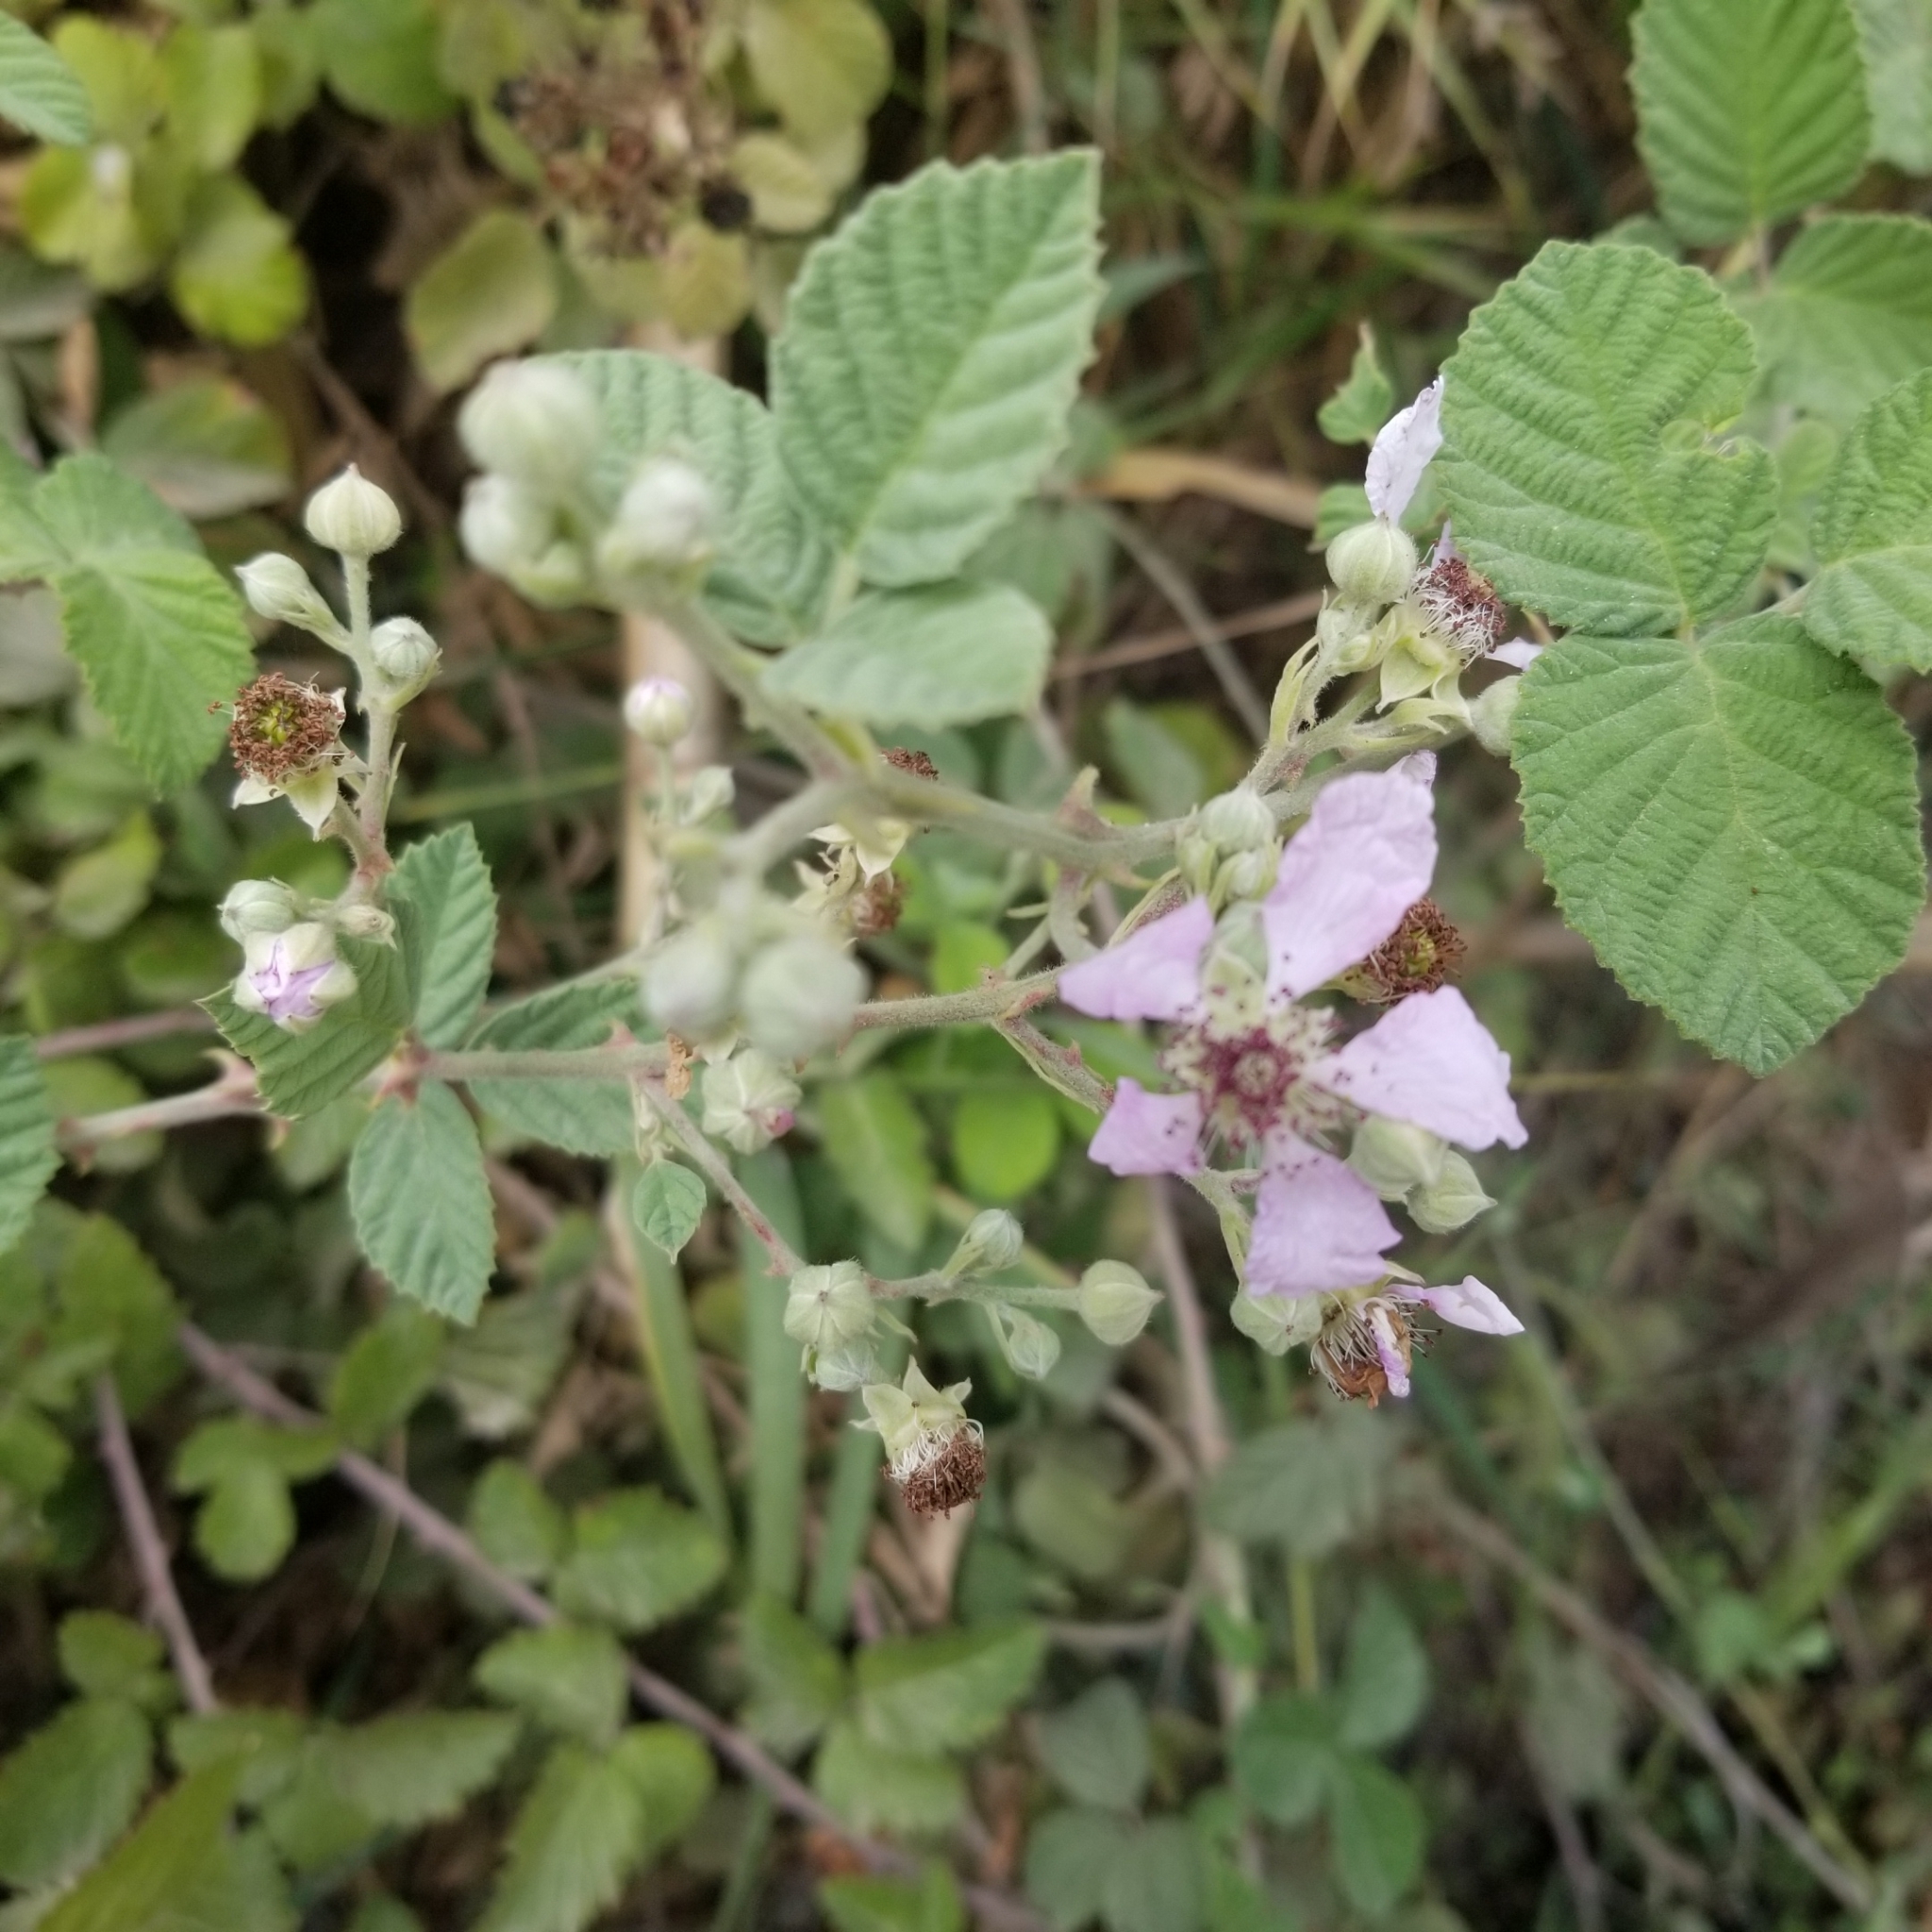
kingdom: Plantae
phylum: Tracheophyta
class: Magnoliopsida
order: Rosales
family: Rosaceae
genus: Rubus
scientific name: Rubus sanctus
